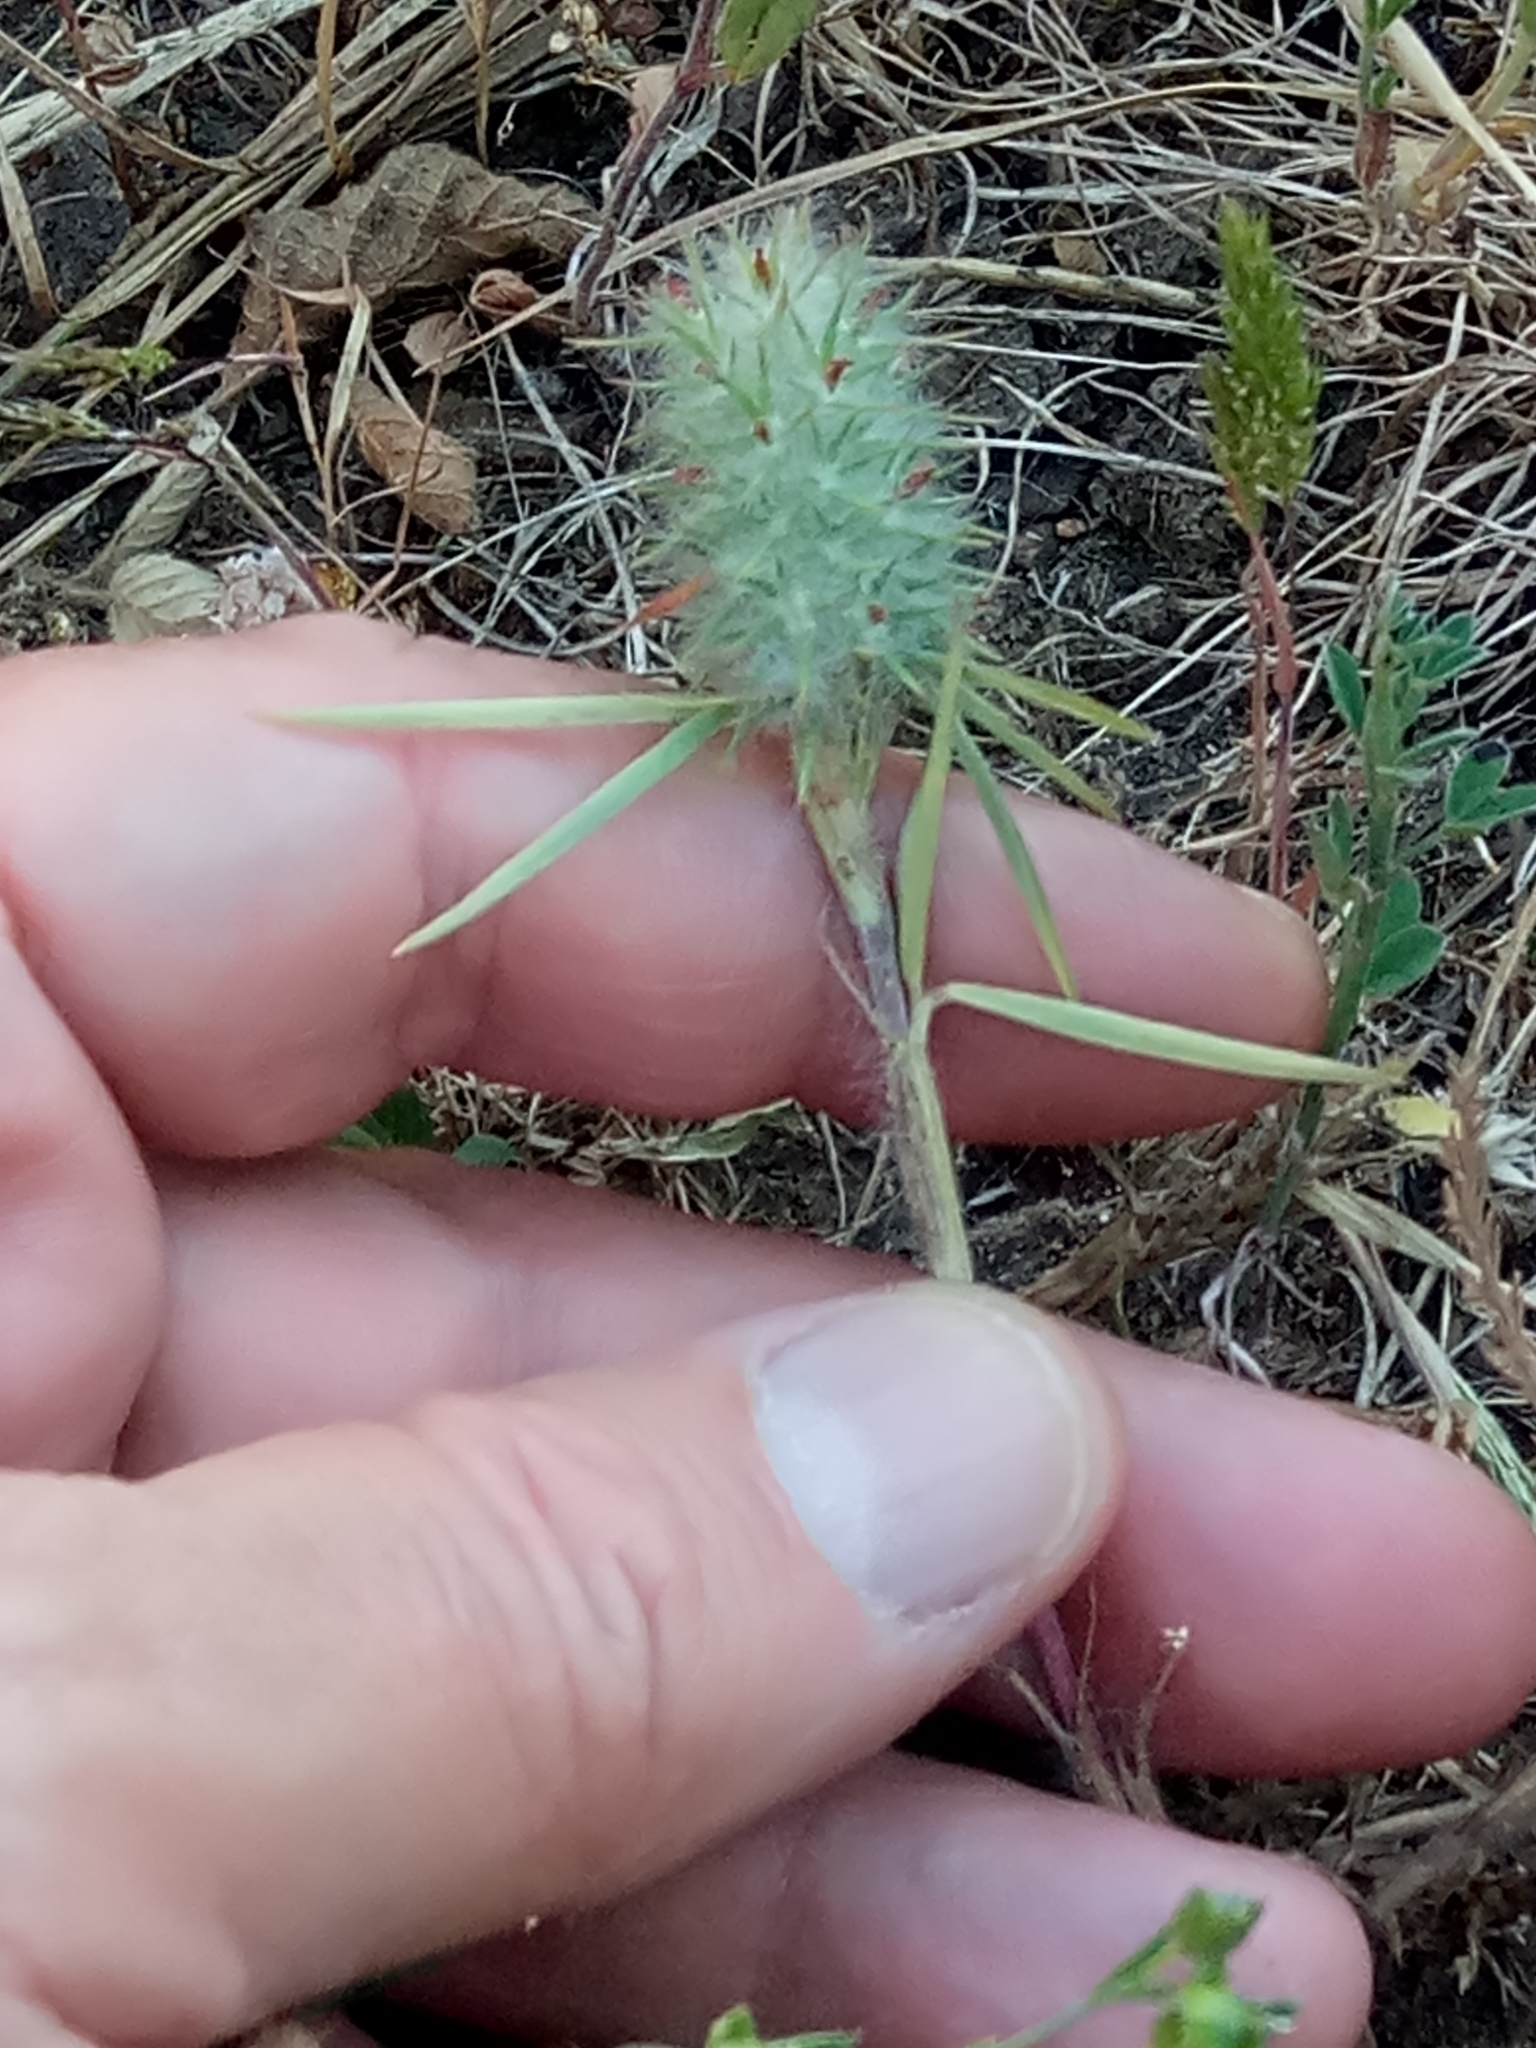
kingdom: Plantae
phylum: Tracheophyta
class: Magnoliopsida
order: Fabales
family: Fabaceae
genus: Trifolium
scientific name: Trifolium angustifolium
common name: Narrow clover
